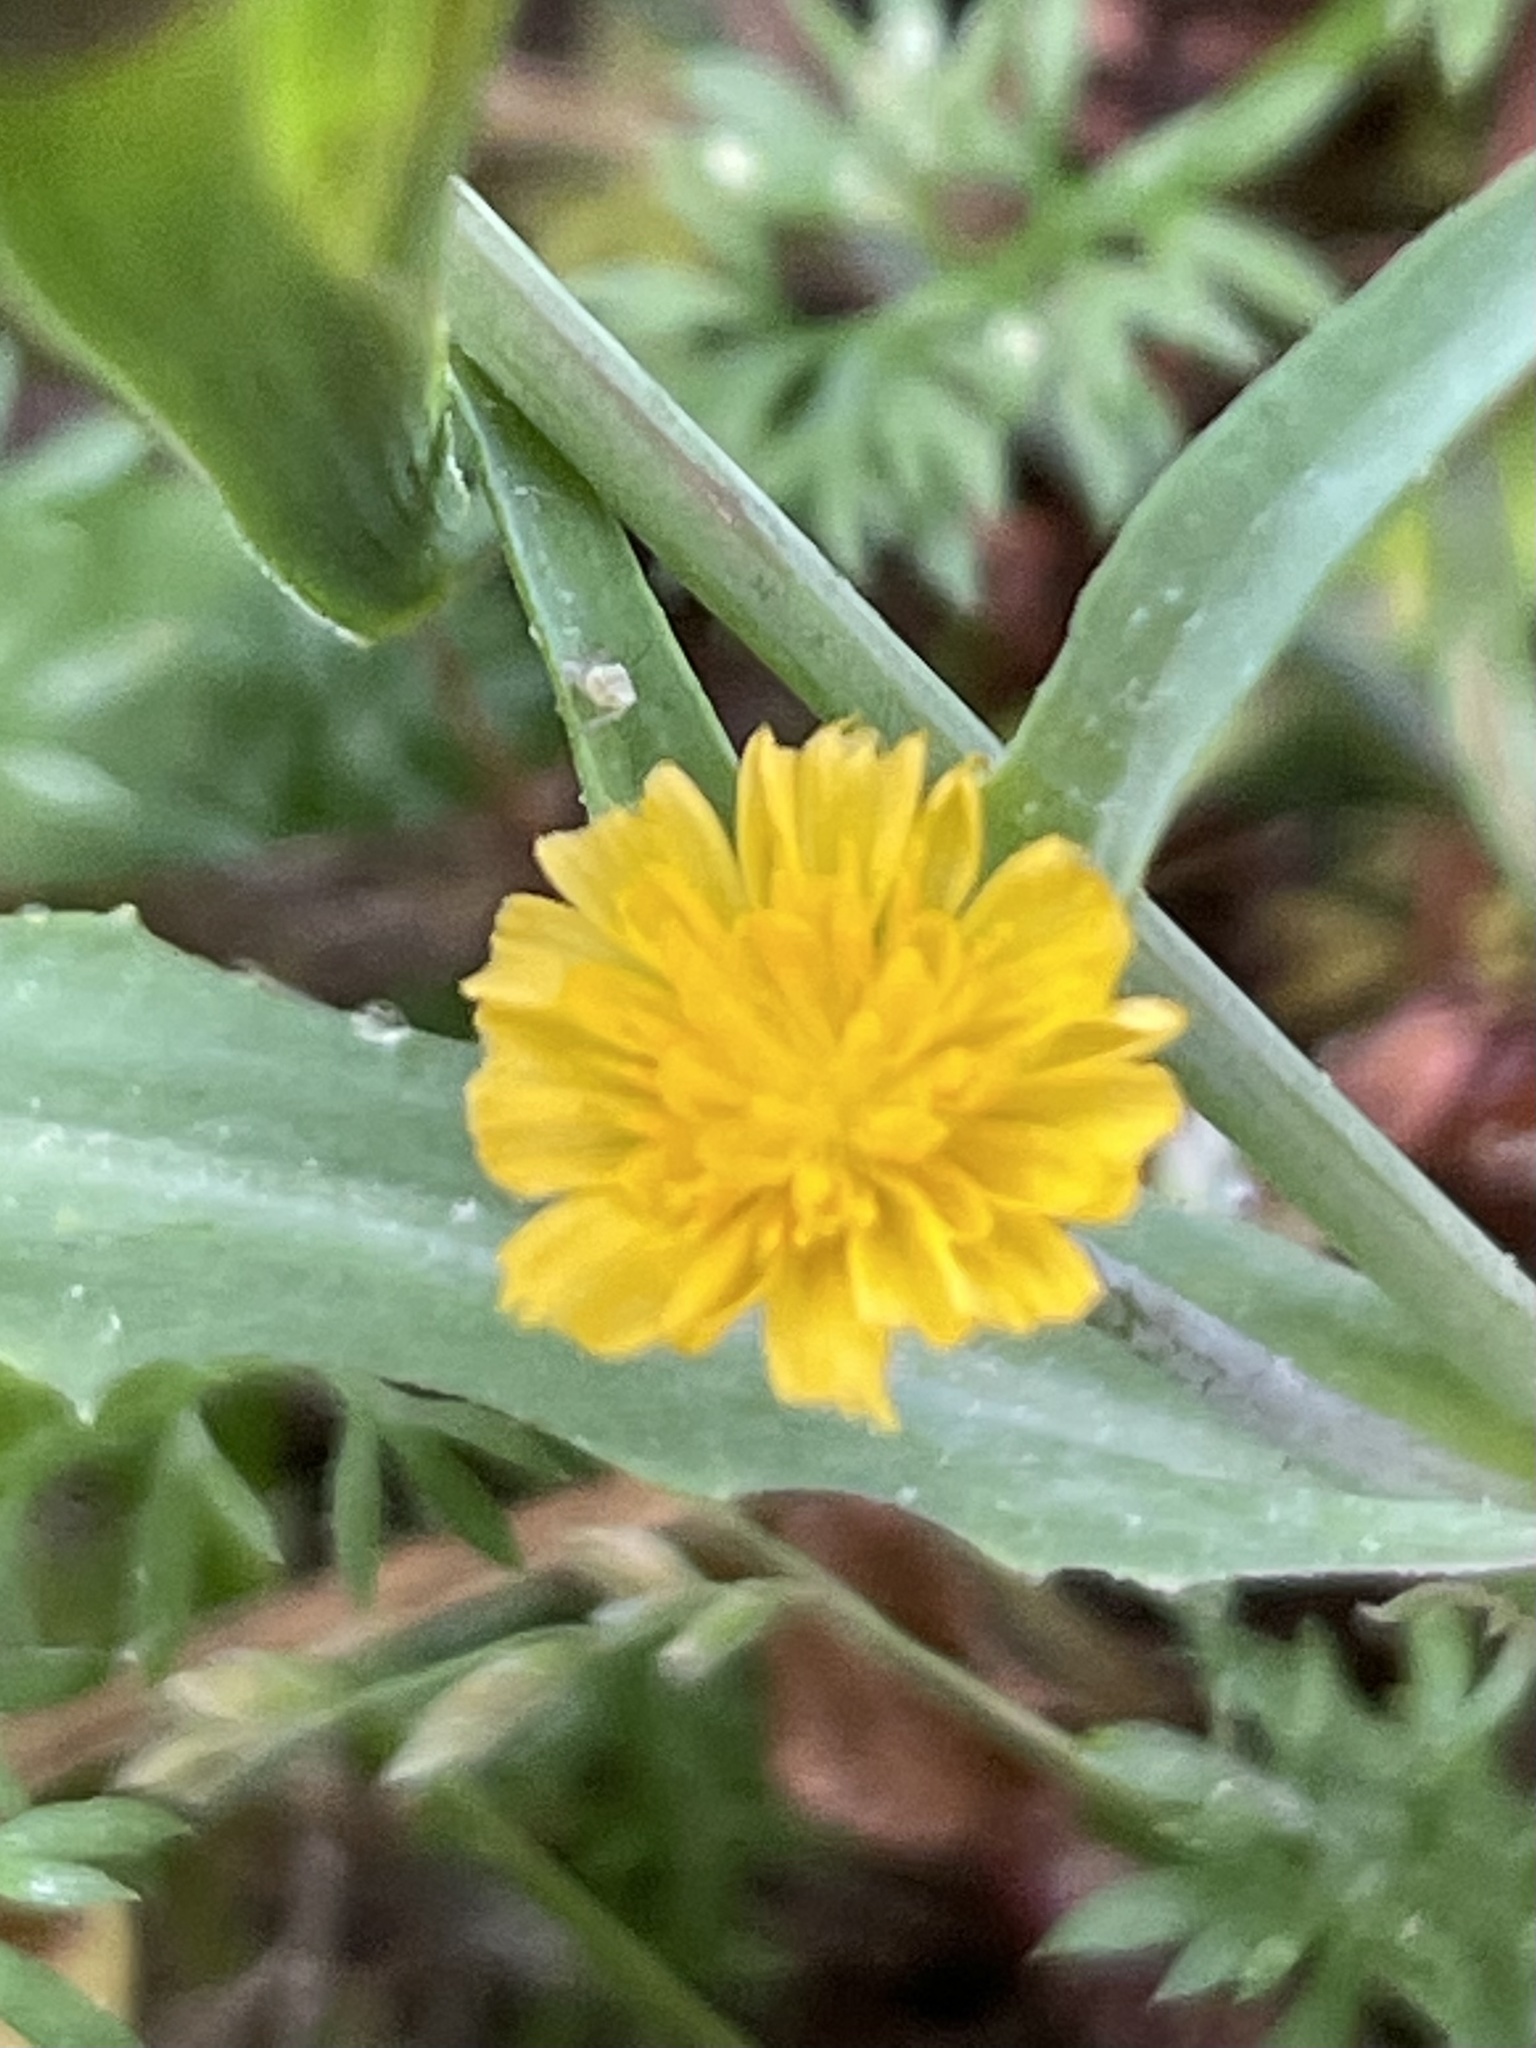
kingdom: Plantae
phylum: Tracheophyta
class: Magnoliopsida
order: Asterales
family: Asteraceae
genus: Krigia
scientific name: Krigia cespitosa
